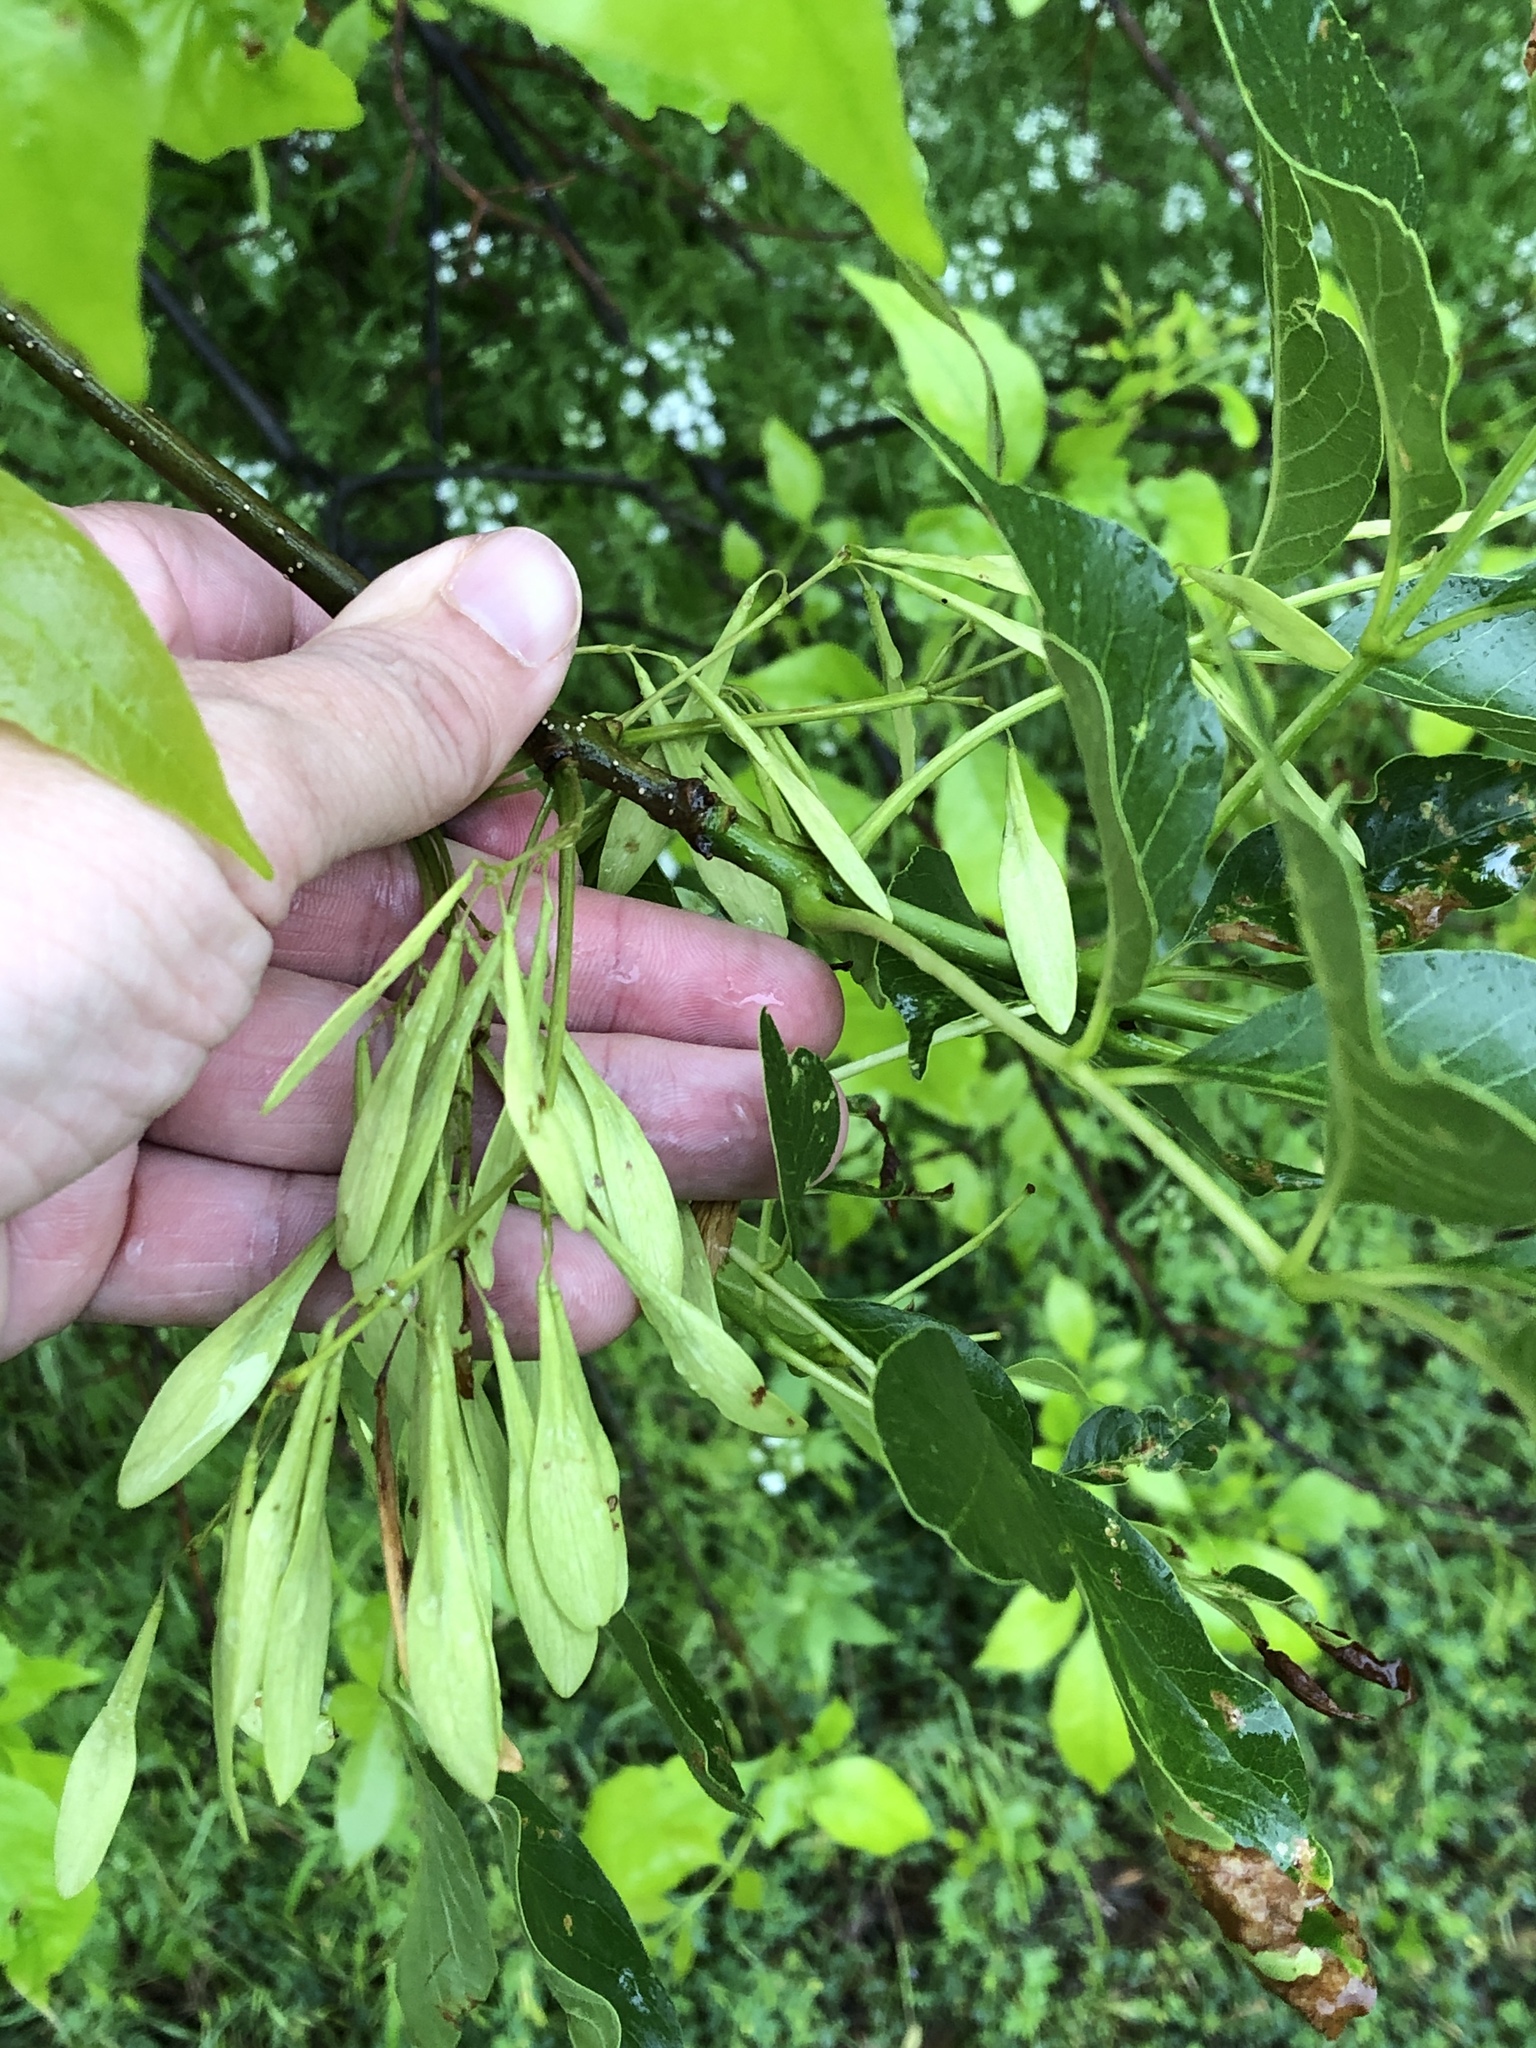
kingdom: Plantae
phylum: Tracheophyta
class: Magnoliopsida
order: Lamiales
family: Oleaceae
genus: Fraxinus
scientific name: Fraxinus pennsylvanica
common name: Green ash
